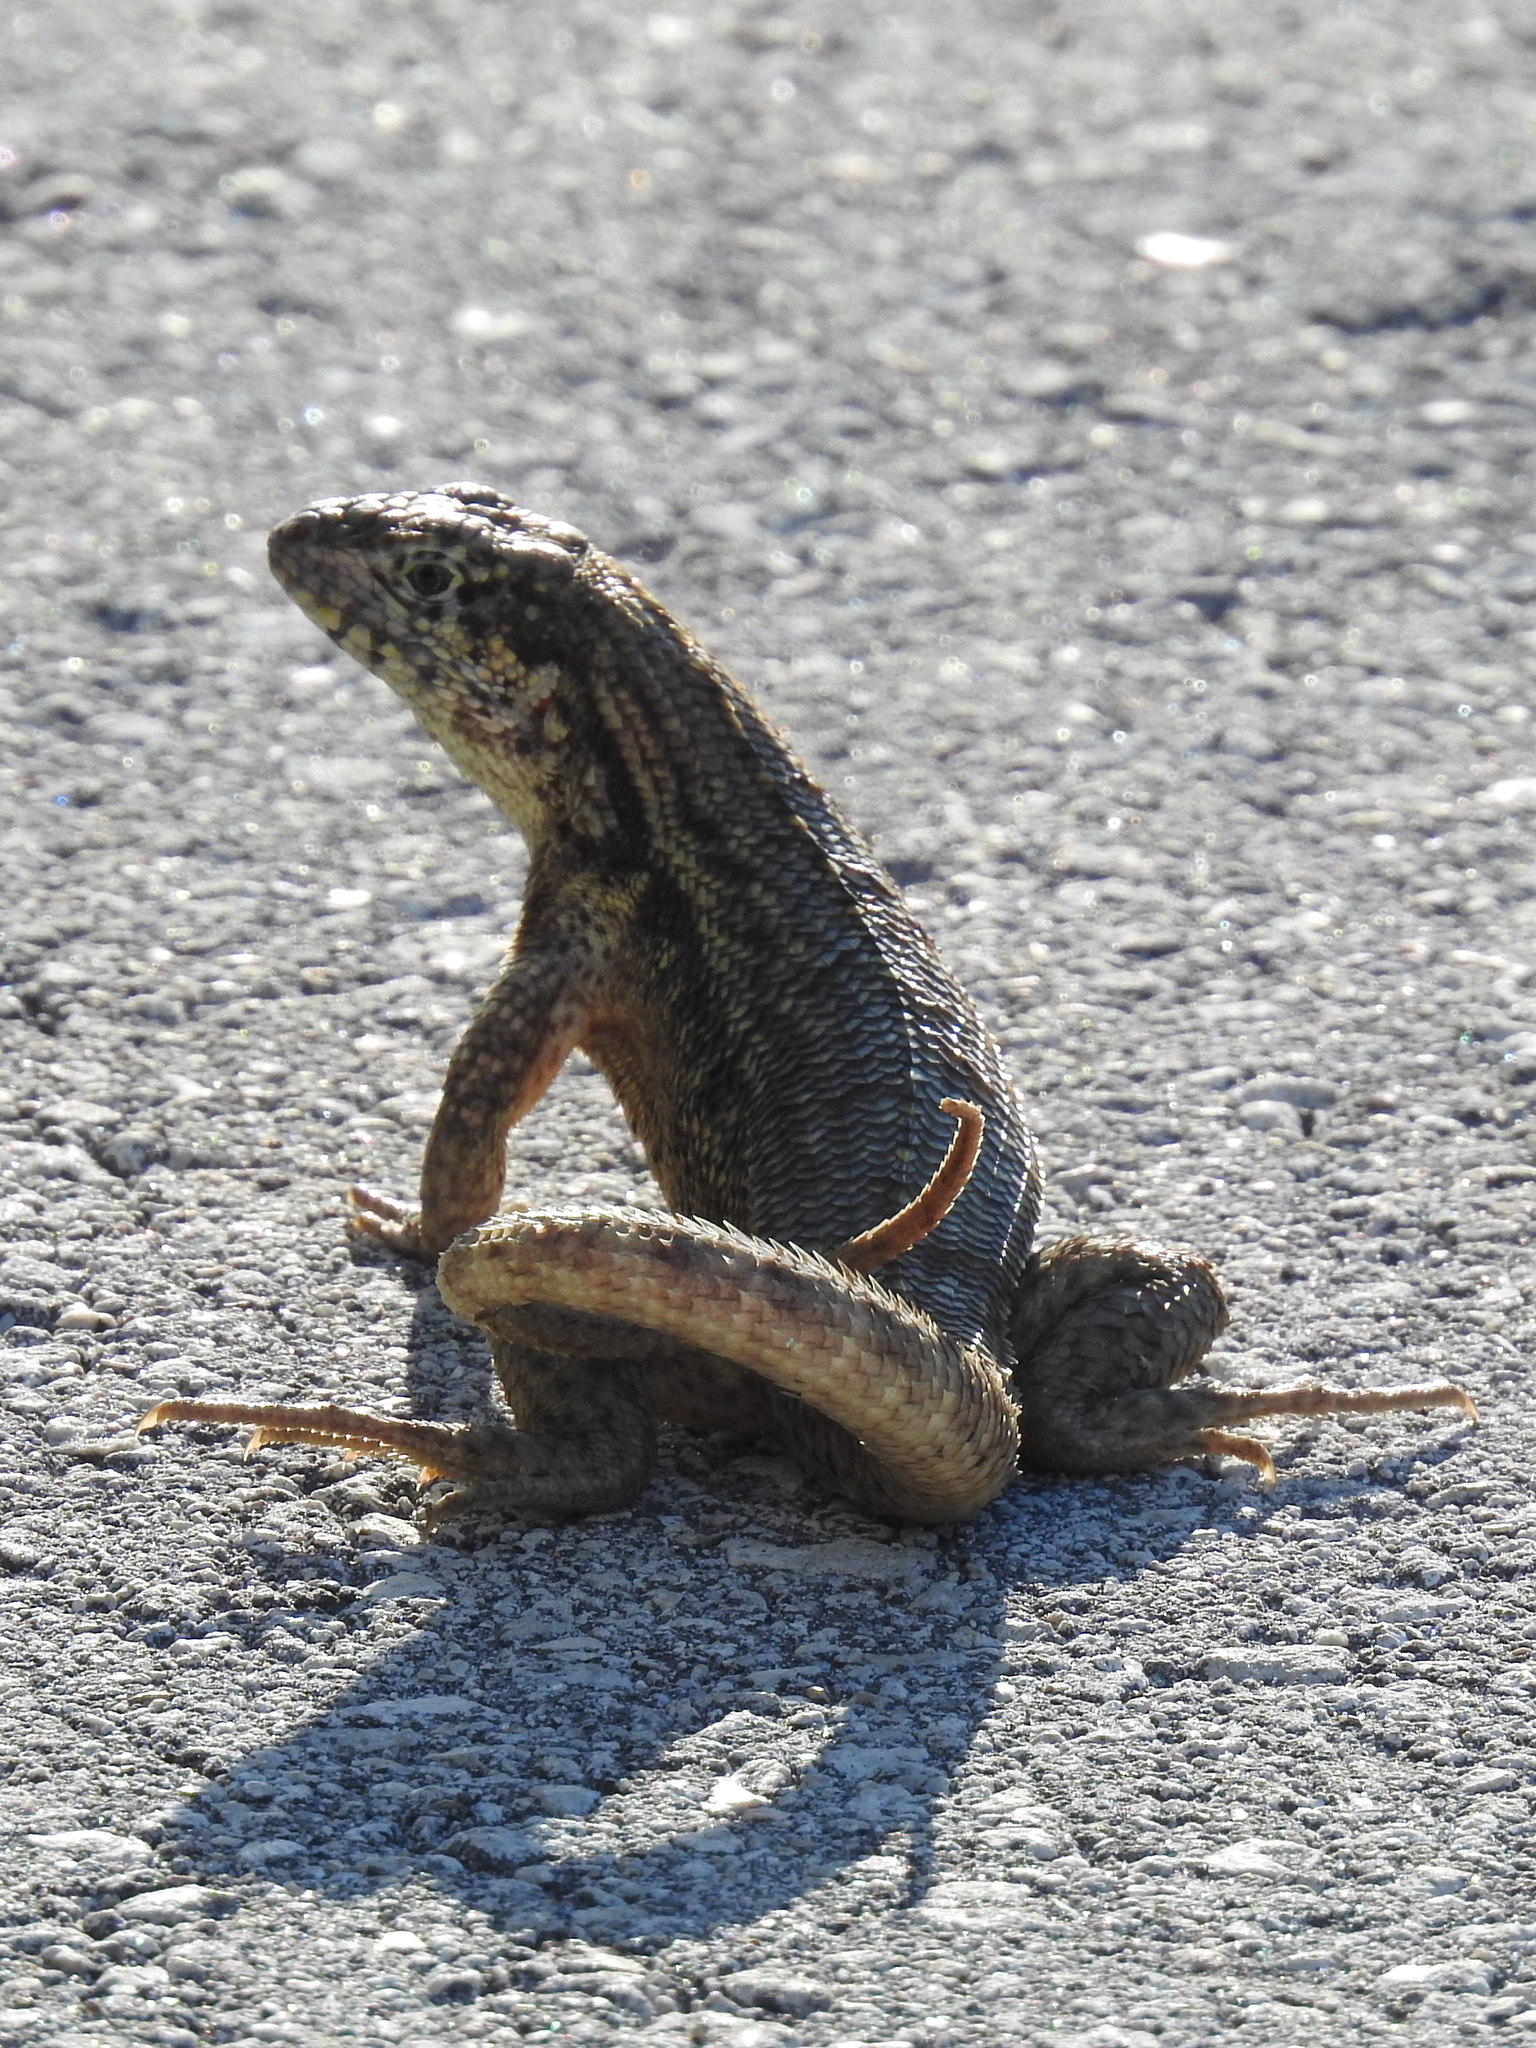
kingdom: Animalia
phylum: Chordata
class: Squamata
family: Leiocephalidae
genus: Leiocephalus
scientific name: Leiocephalus carinatus
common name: Northern curly-tailed lizard
